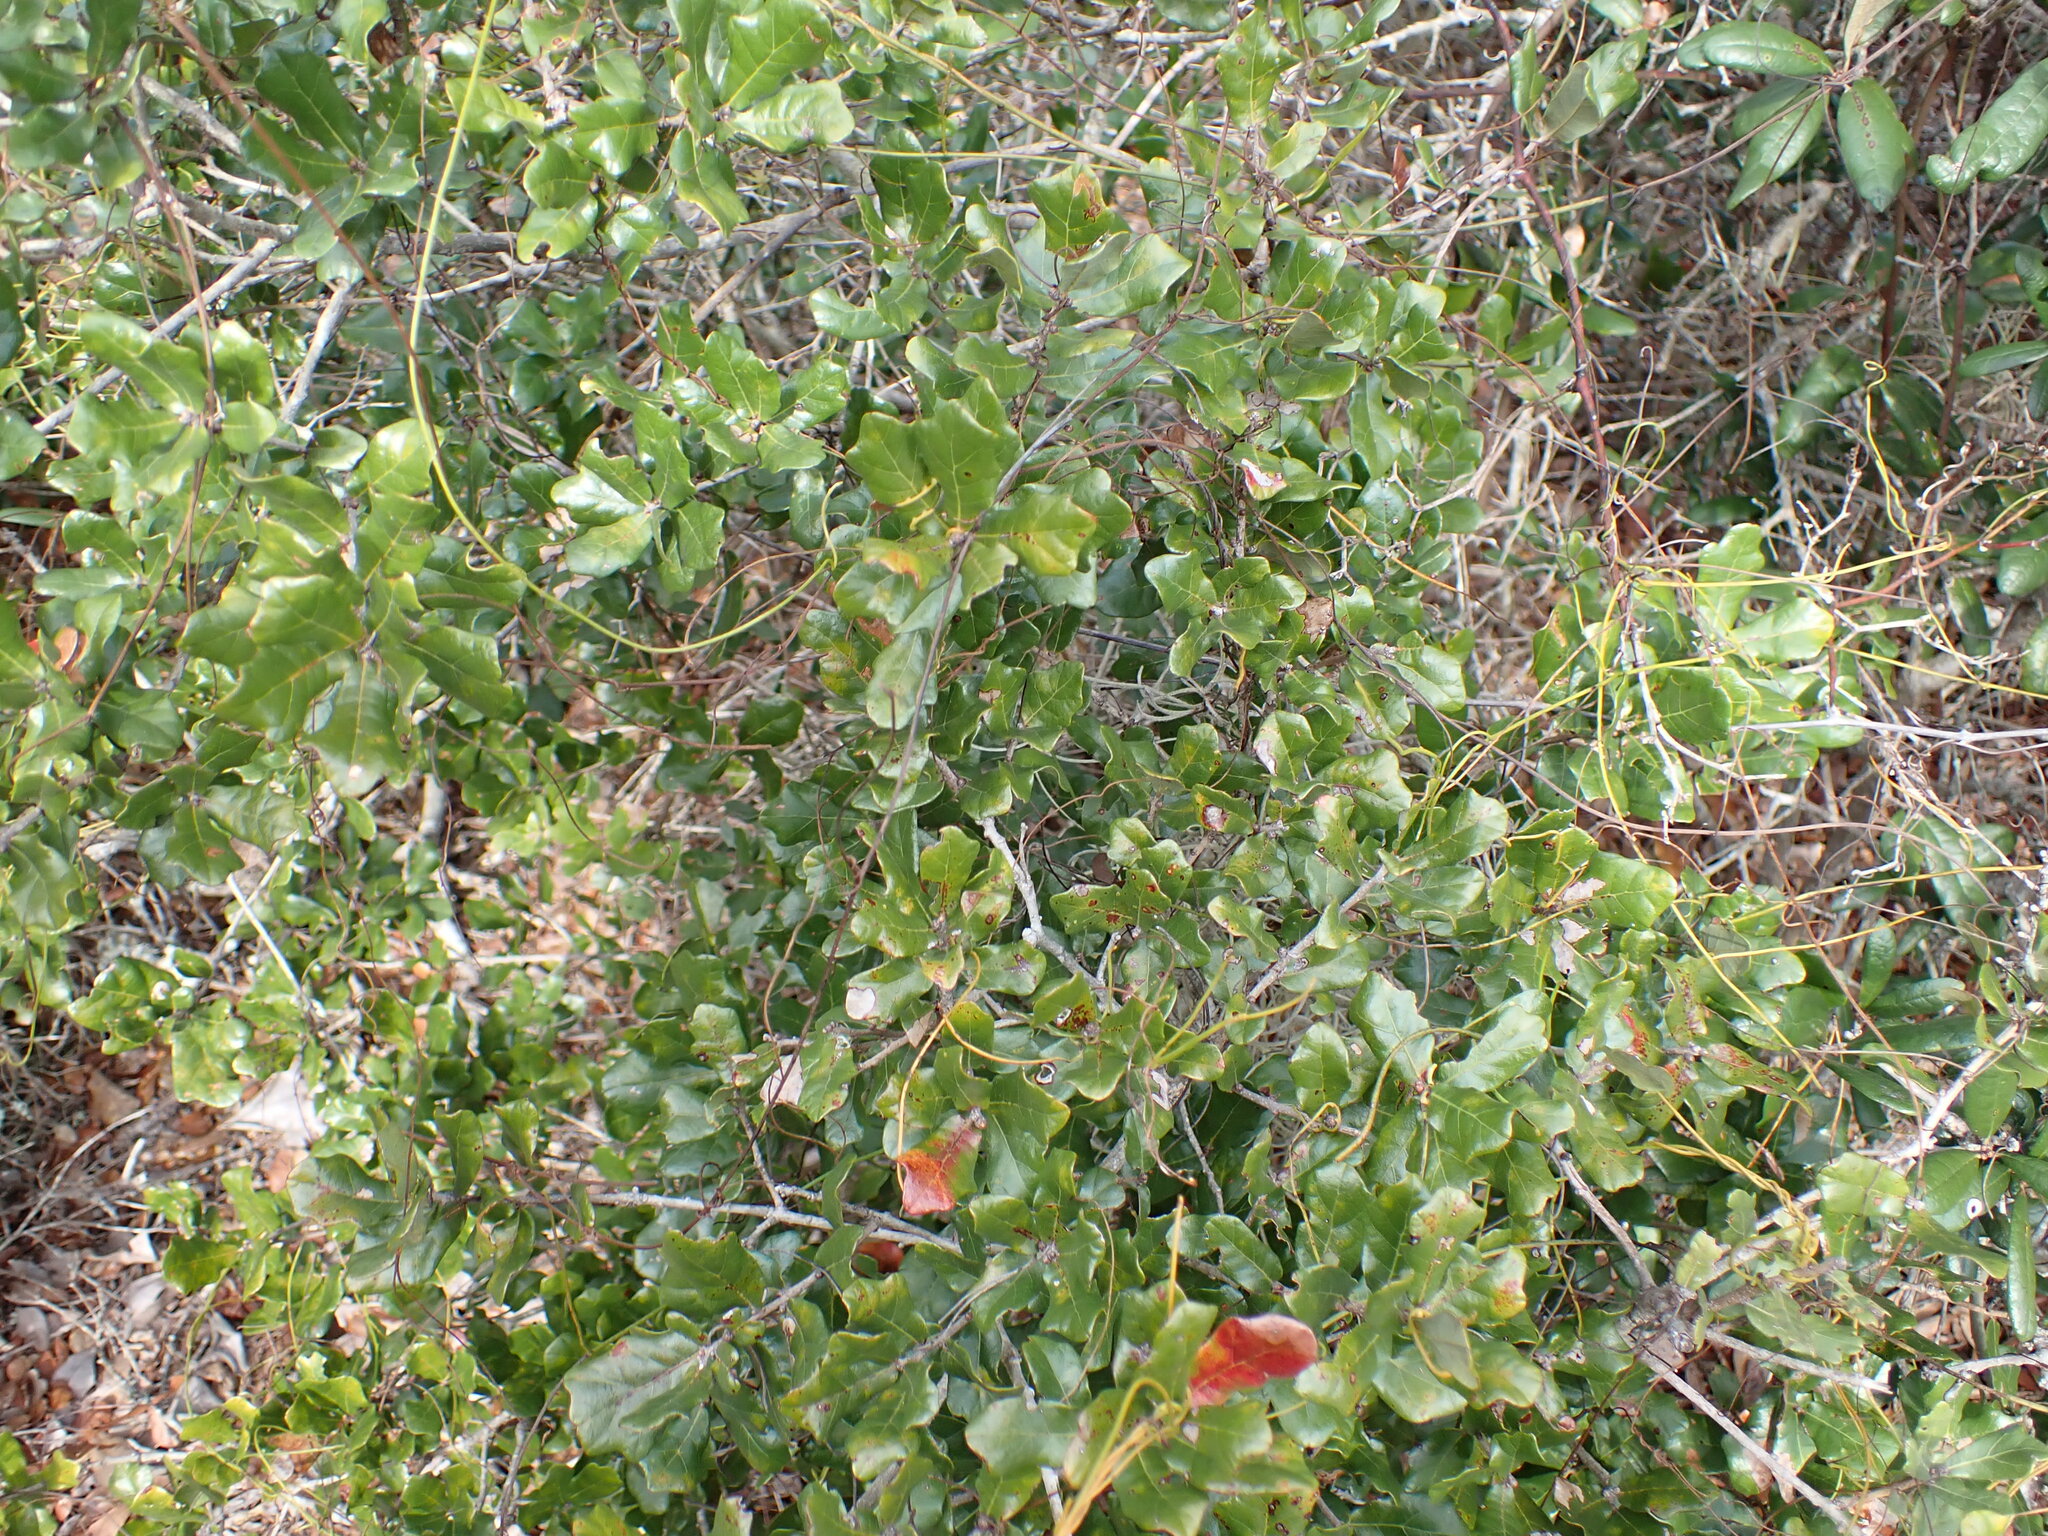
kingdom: Plantae
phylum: Tracheophyta
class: Magnoliopsida
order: Fagales
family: Fagaceae
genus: Quercus
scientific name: Quercus chapmanii
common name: Chapman oak
